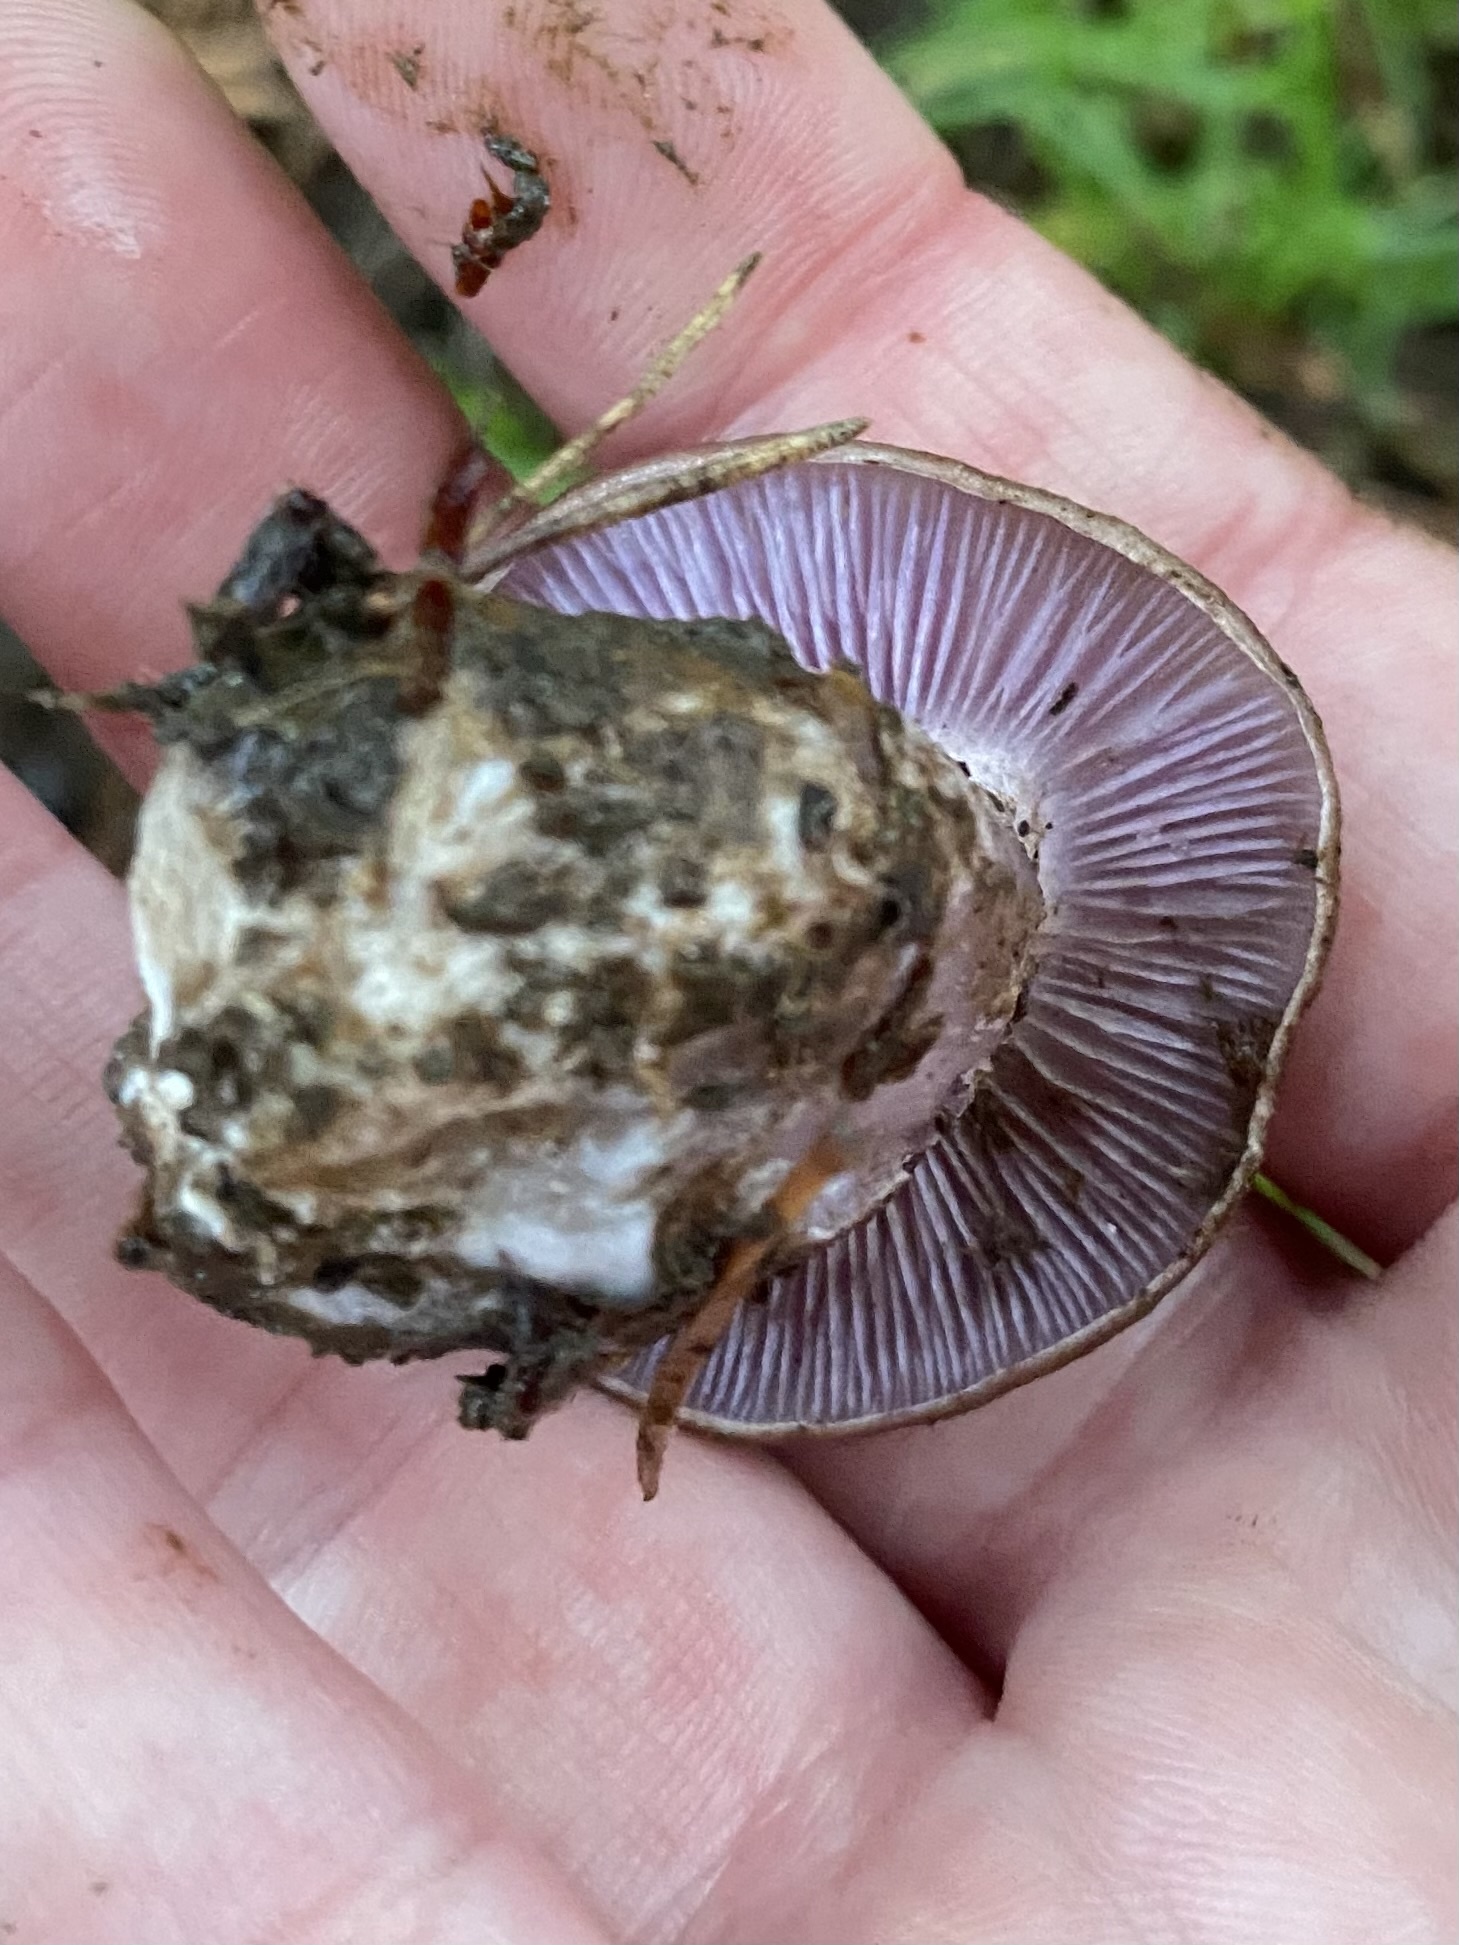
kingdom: Fungi
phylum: Basidiomycota
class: Agaricomycetes
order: Agaricales
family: Tricholomataceae
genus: Collybia
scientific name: Collybia
